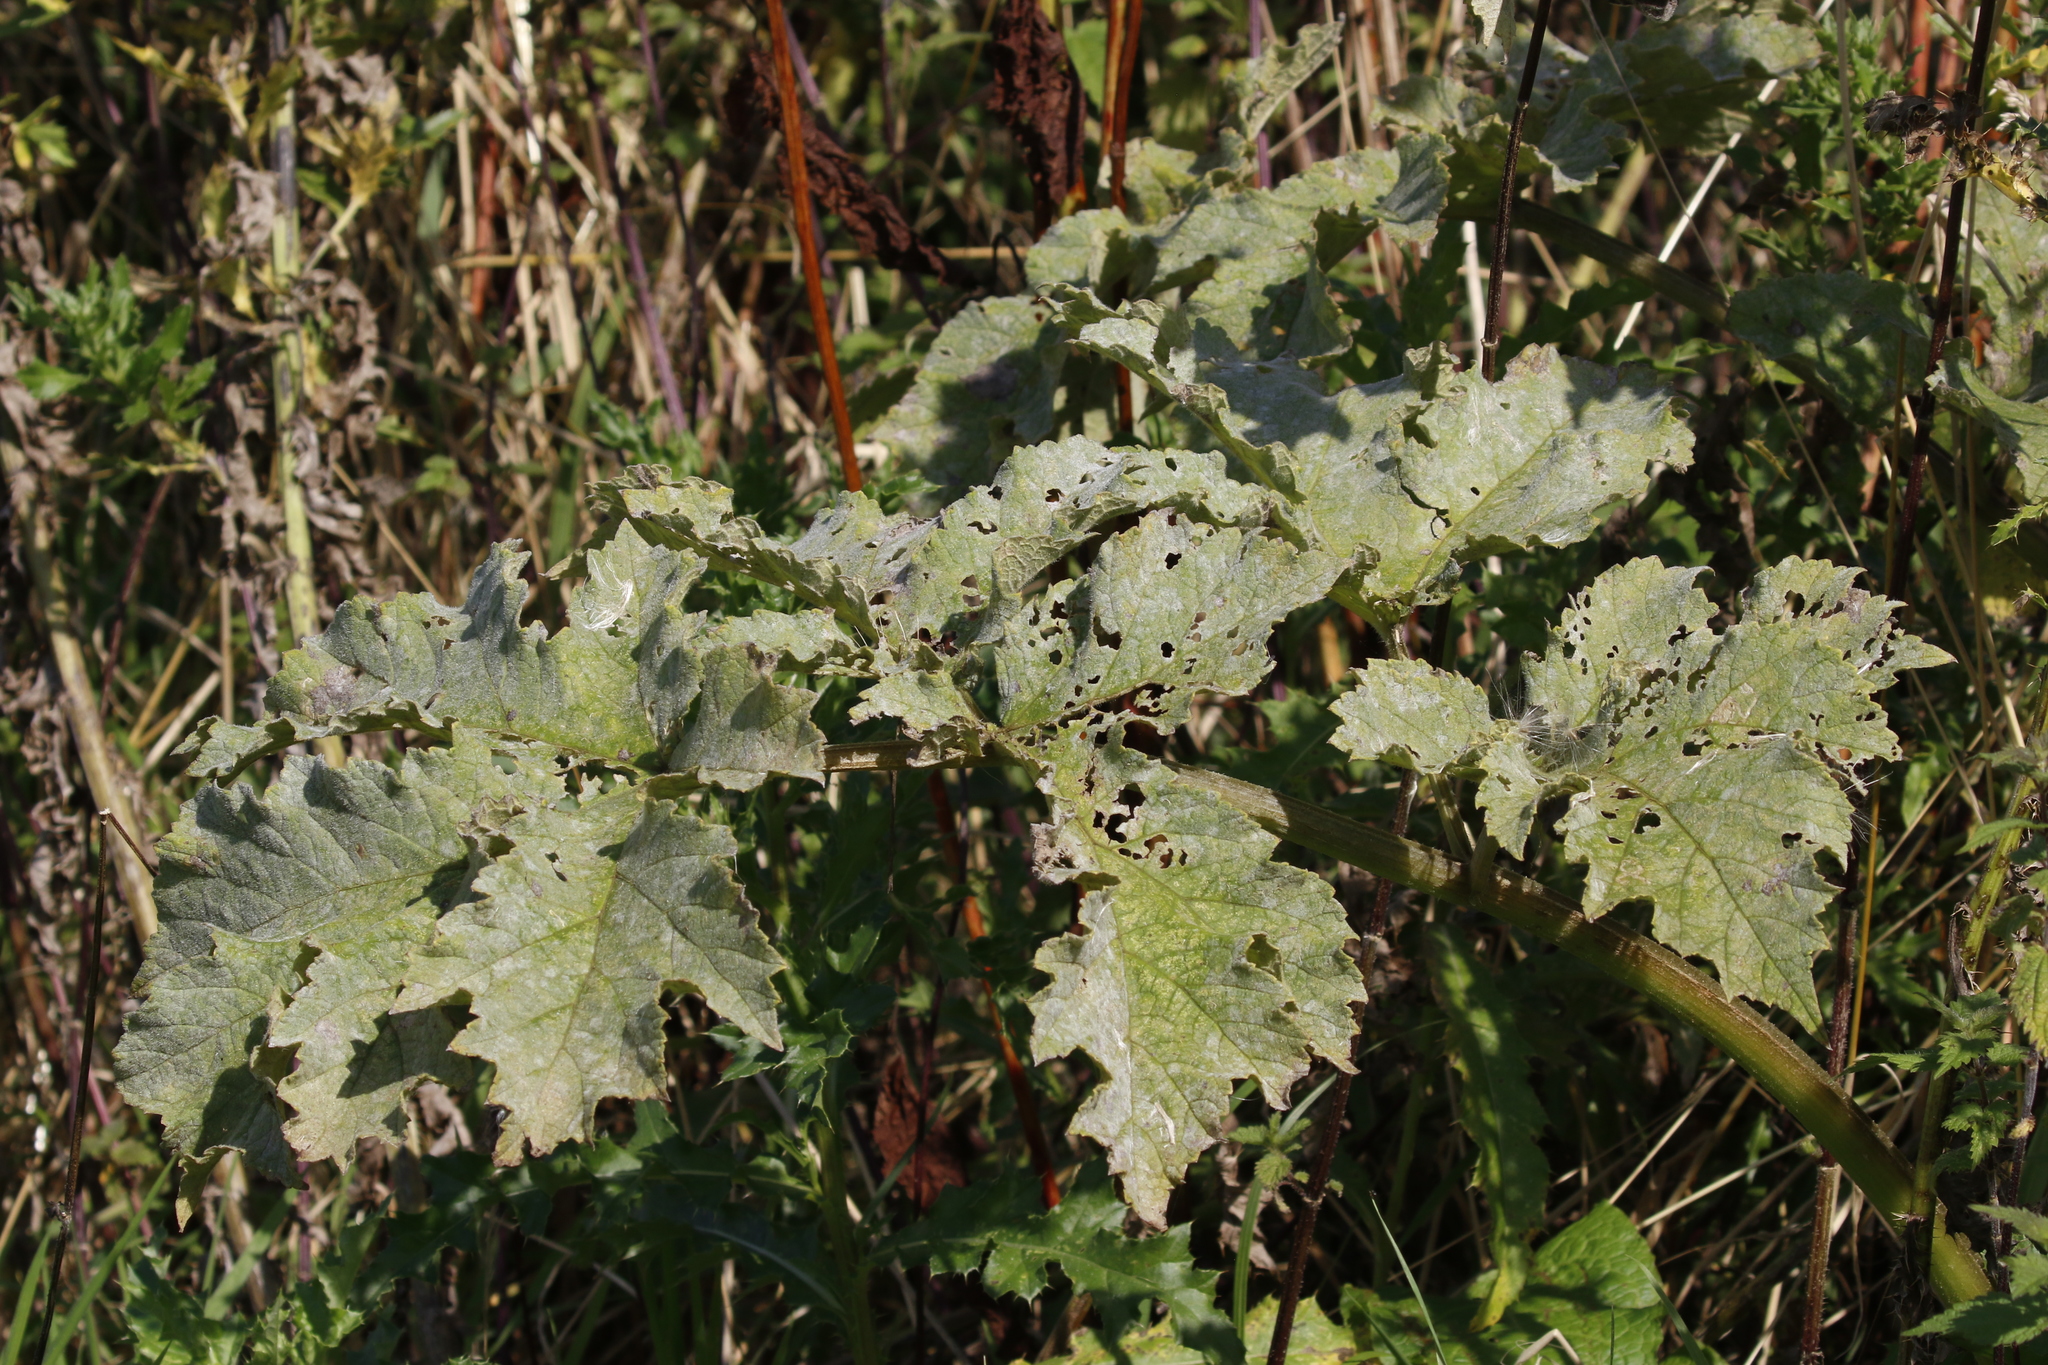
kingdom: Fungi
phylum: Ascomycota
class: Leotiomycetes
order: Helotiales
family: Erysiphaceae
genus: Erysiphe
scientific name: Erysiphe heraclei
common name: Umbellifer mildew
